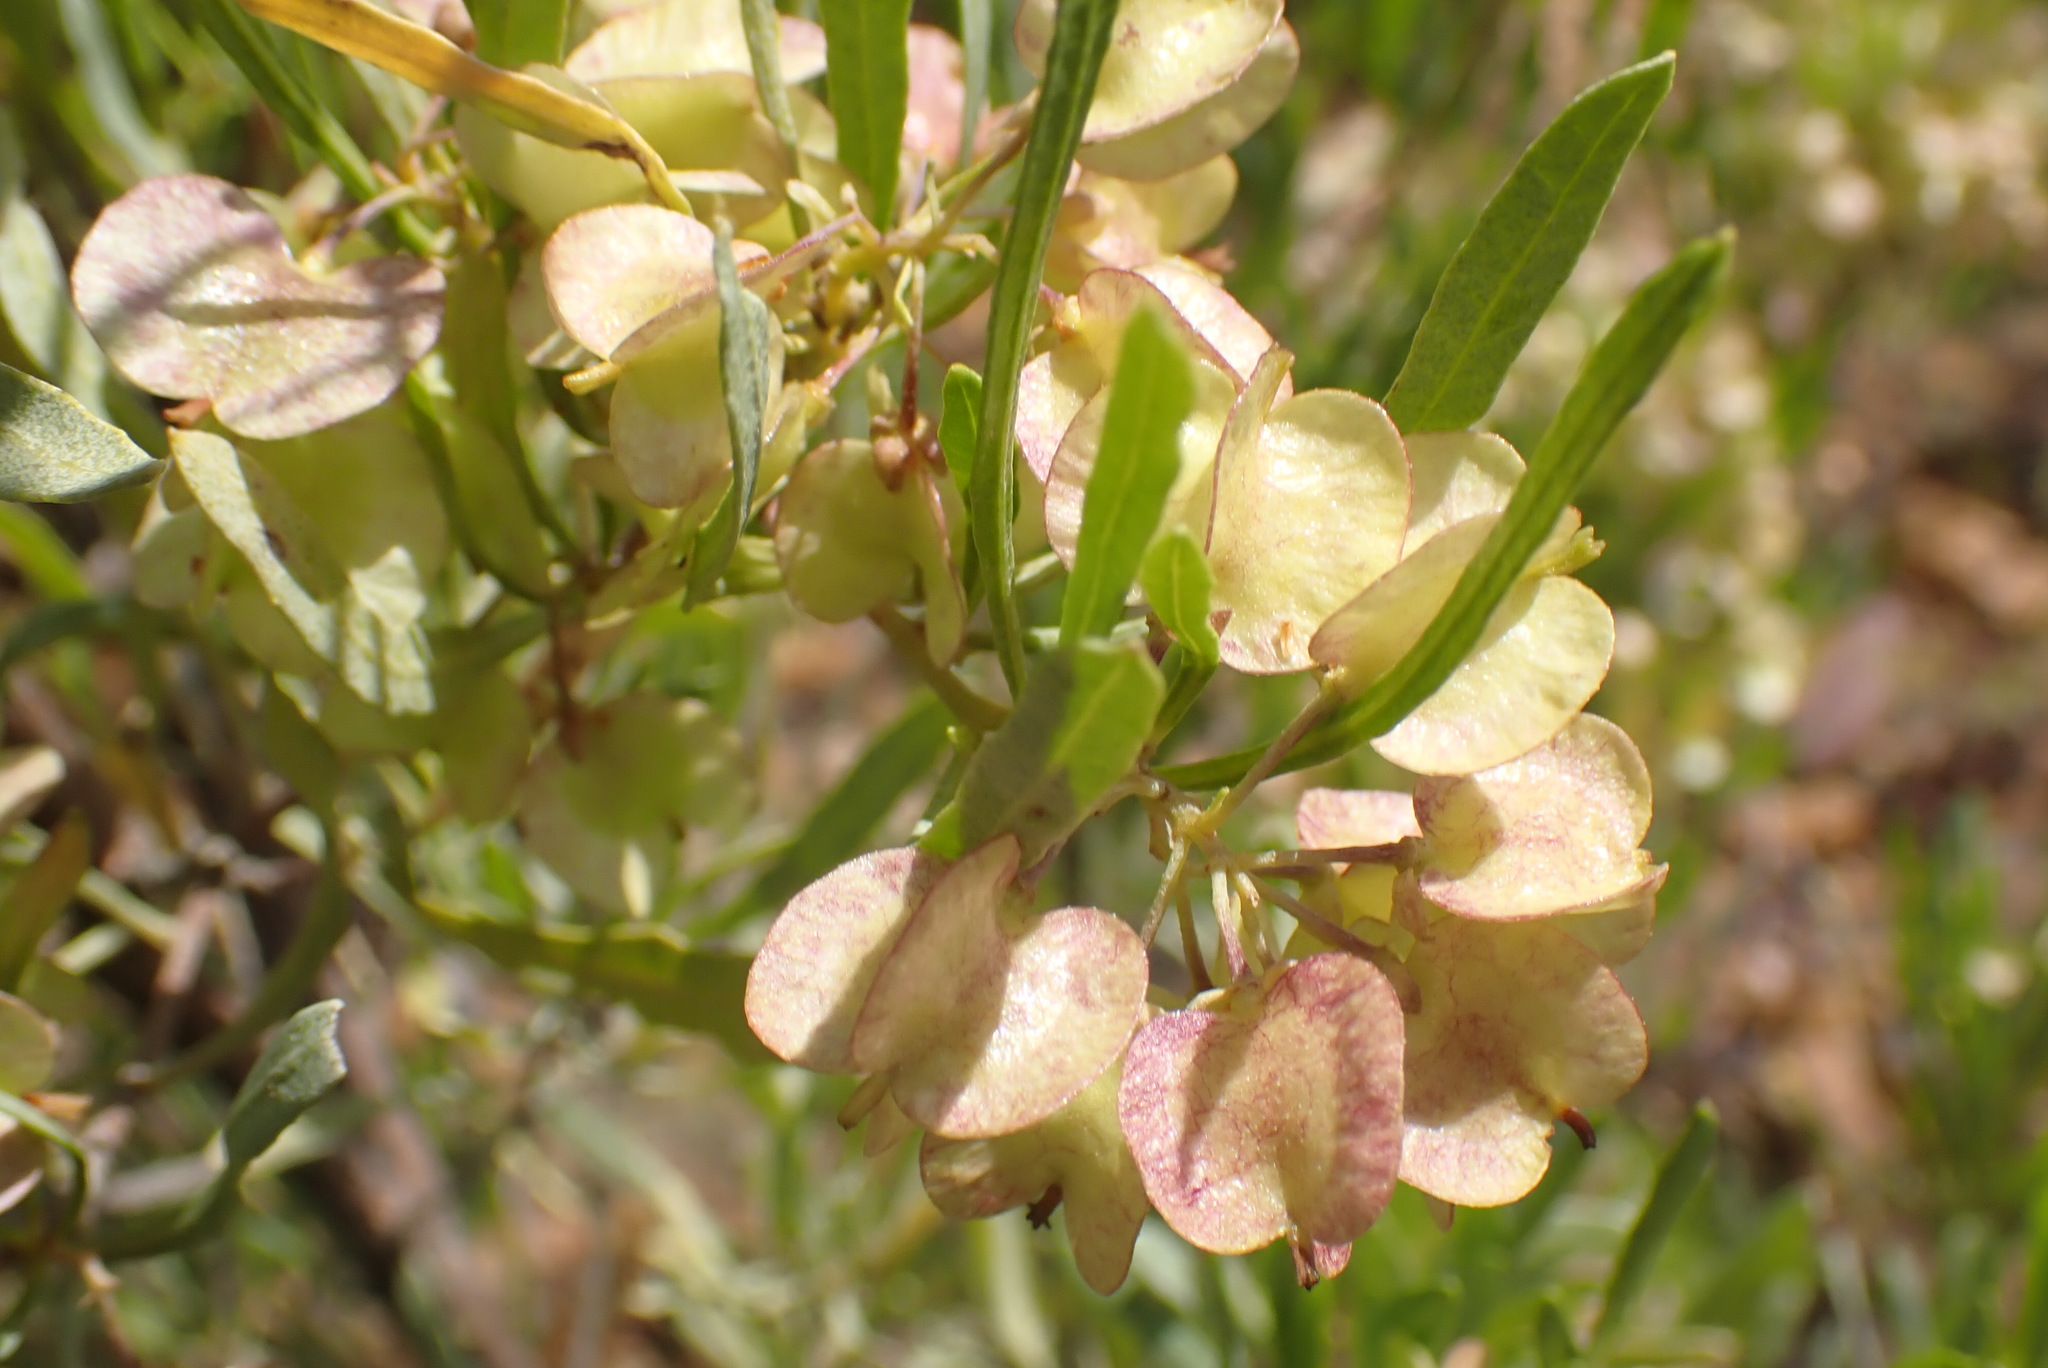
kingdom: Plantae
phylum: Tracheophyta
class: Magnoliopsida
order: Sapindales
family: Sapindaceae
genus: Dodonaea
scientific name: Dodonaea viscosa
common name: Hopbush
